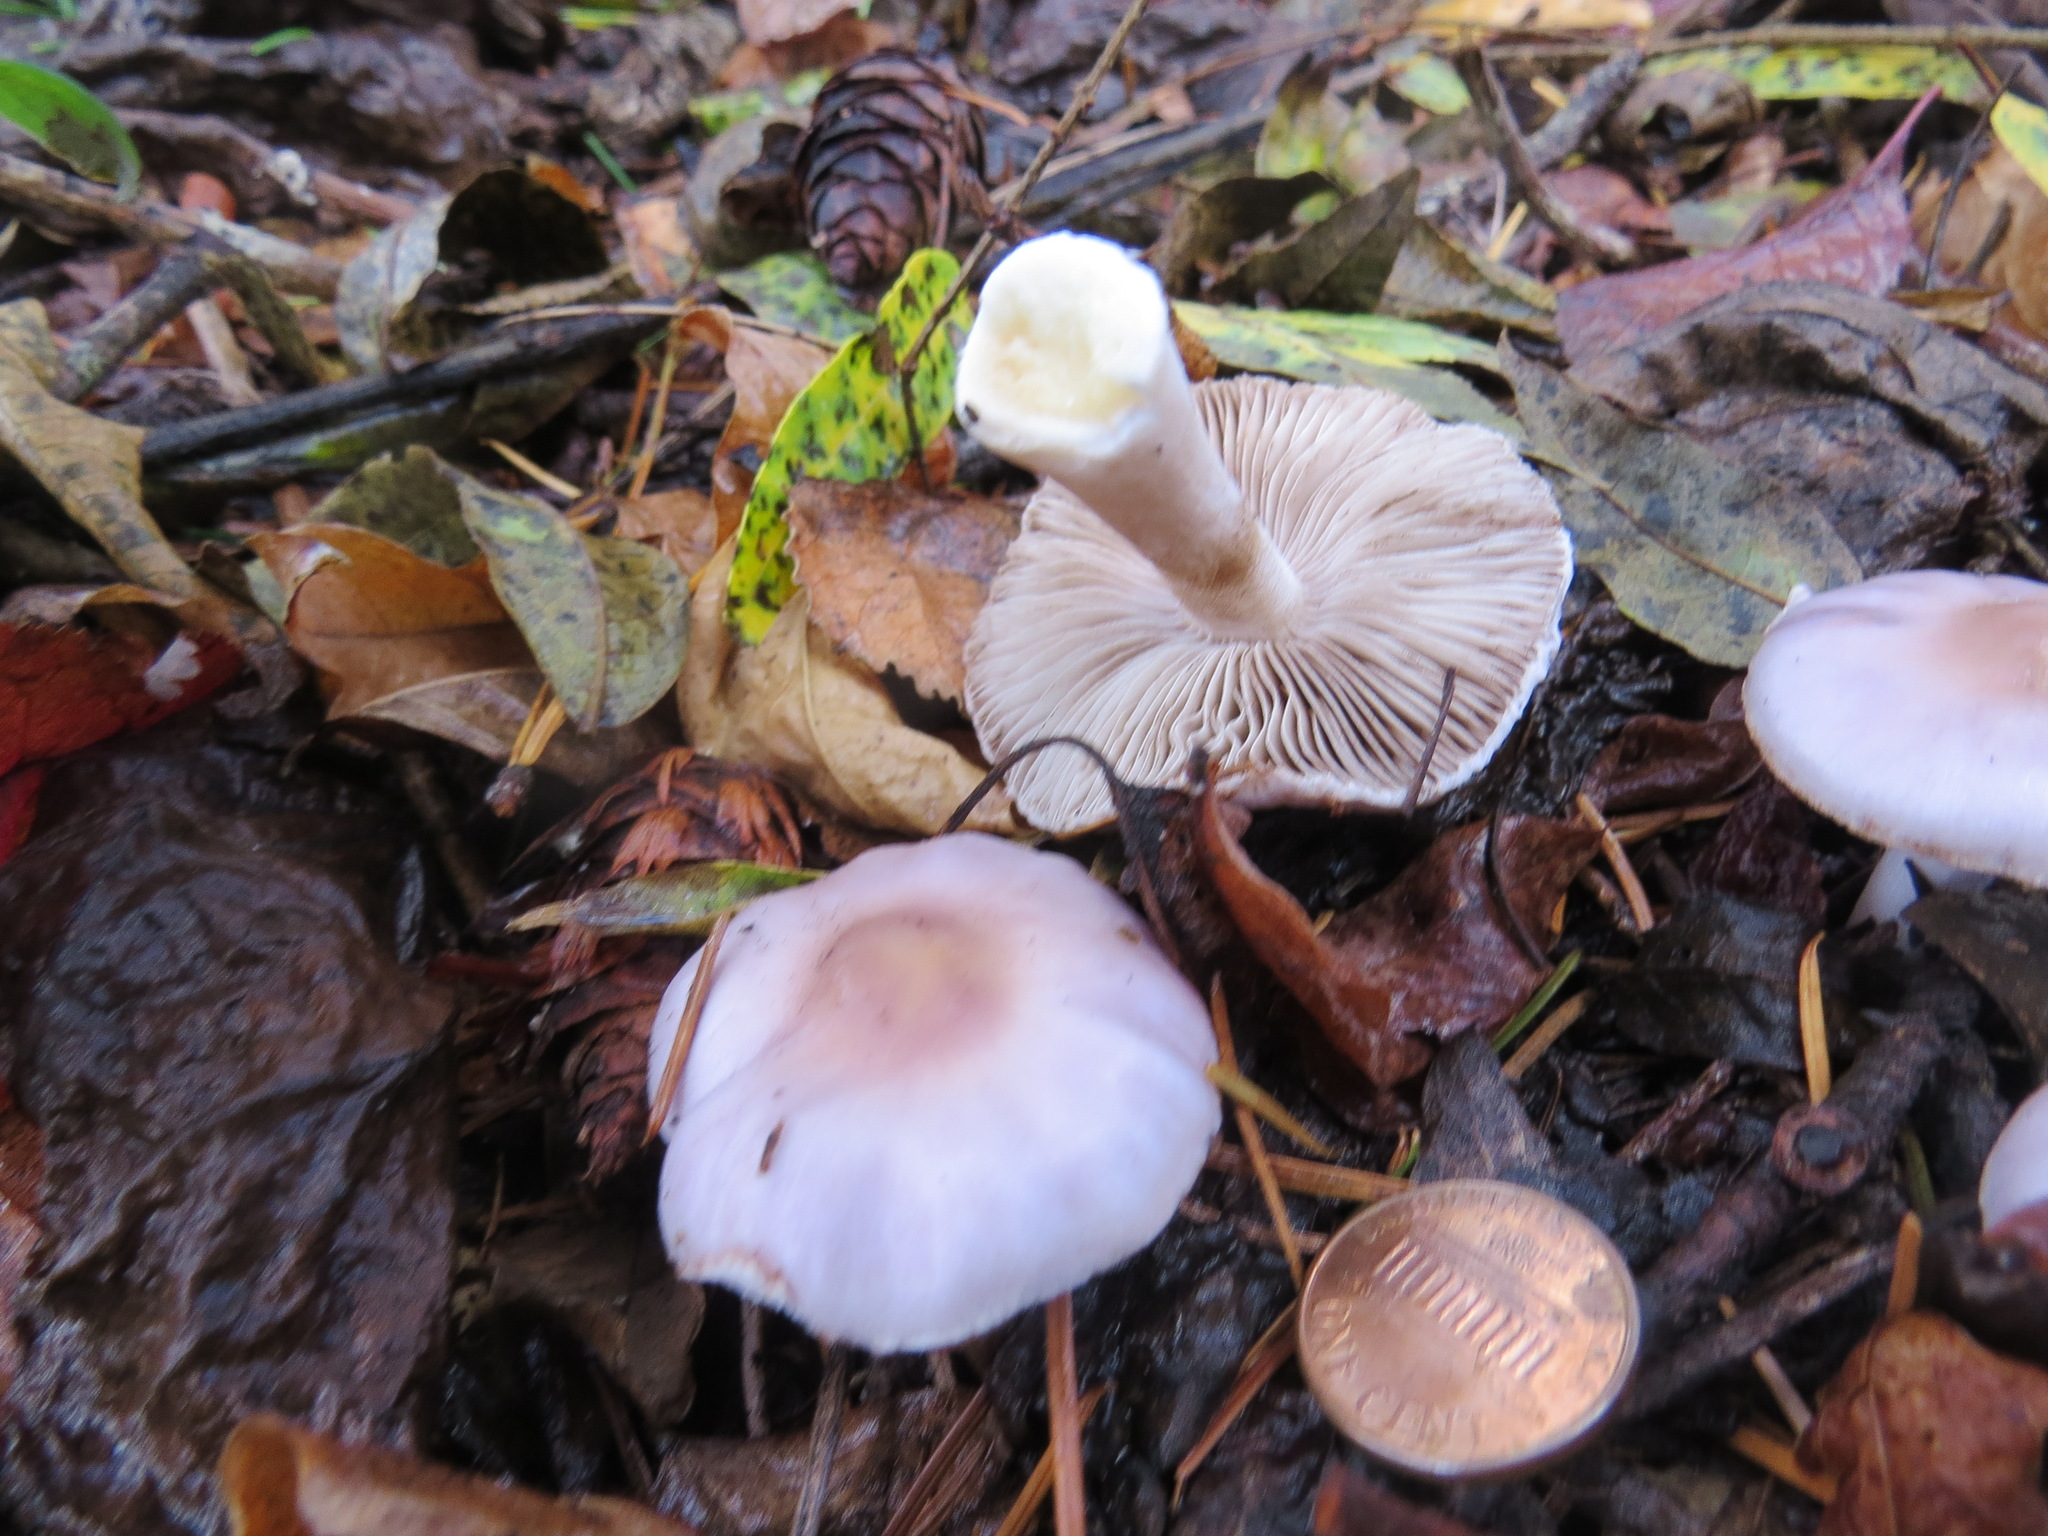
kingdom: Fungi
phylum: Basidiomycota
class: Agaricomycetes
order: Agaricales
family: Inocybaceae
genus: Inocybe
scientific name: Inocybe pallidicremea
